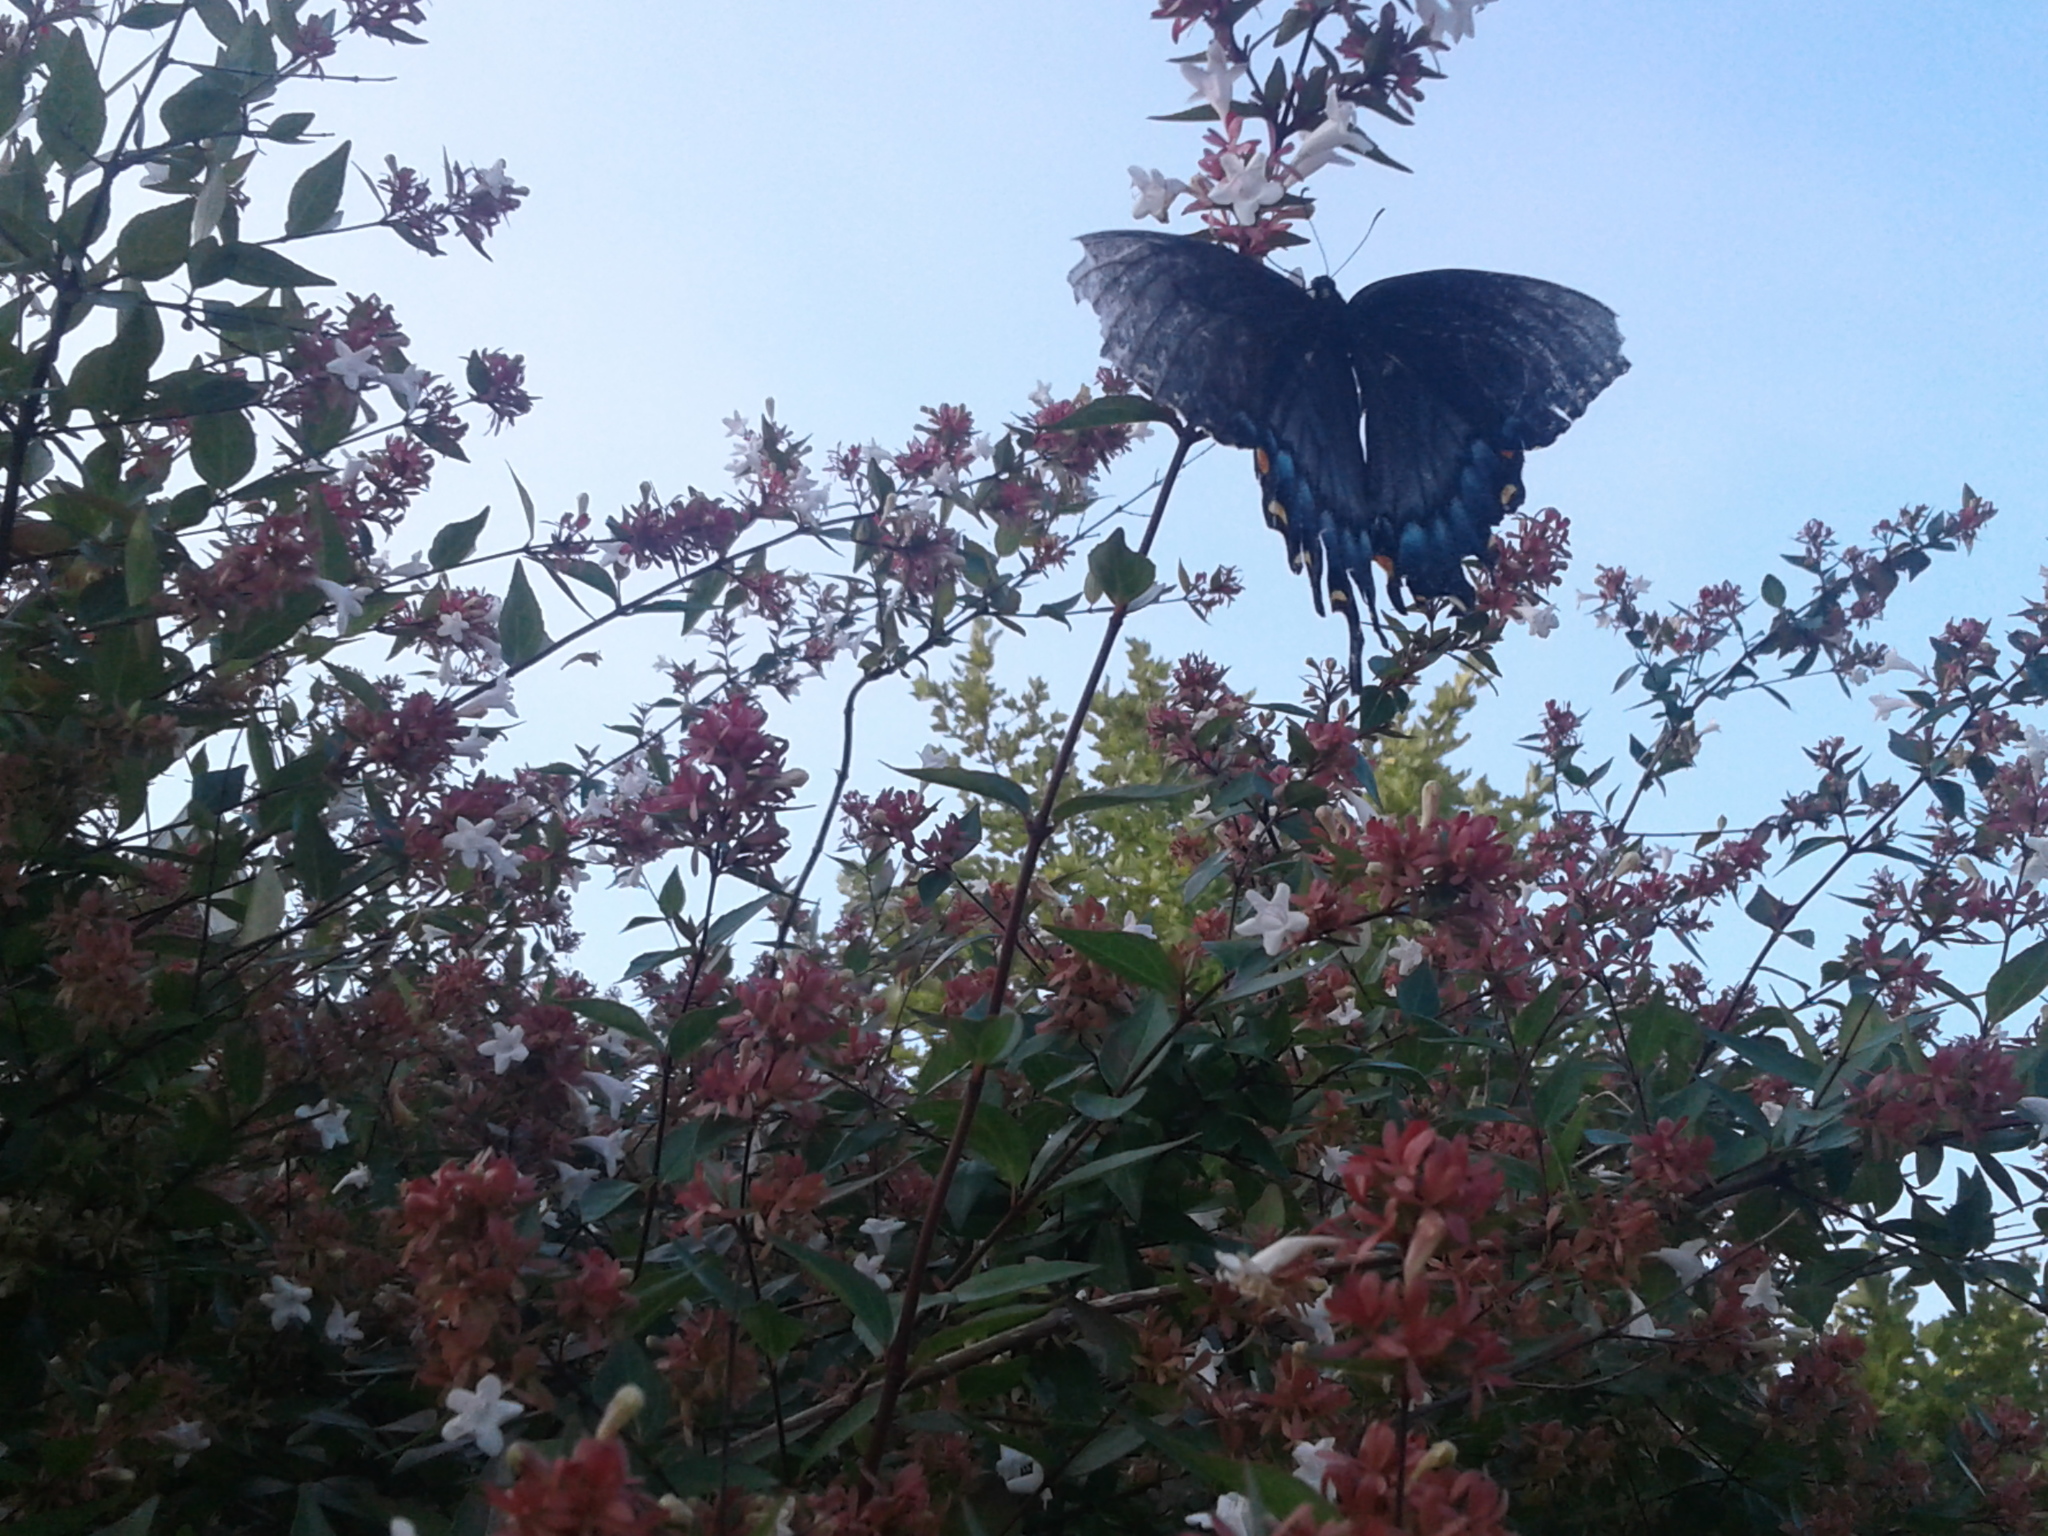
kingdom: Animalia
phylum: Arthropoda
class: Insecta
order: Lepidoptera
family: Papilionidae
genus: Papilio
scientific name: Papilio glaucus
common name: Tiger swallowtail
